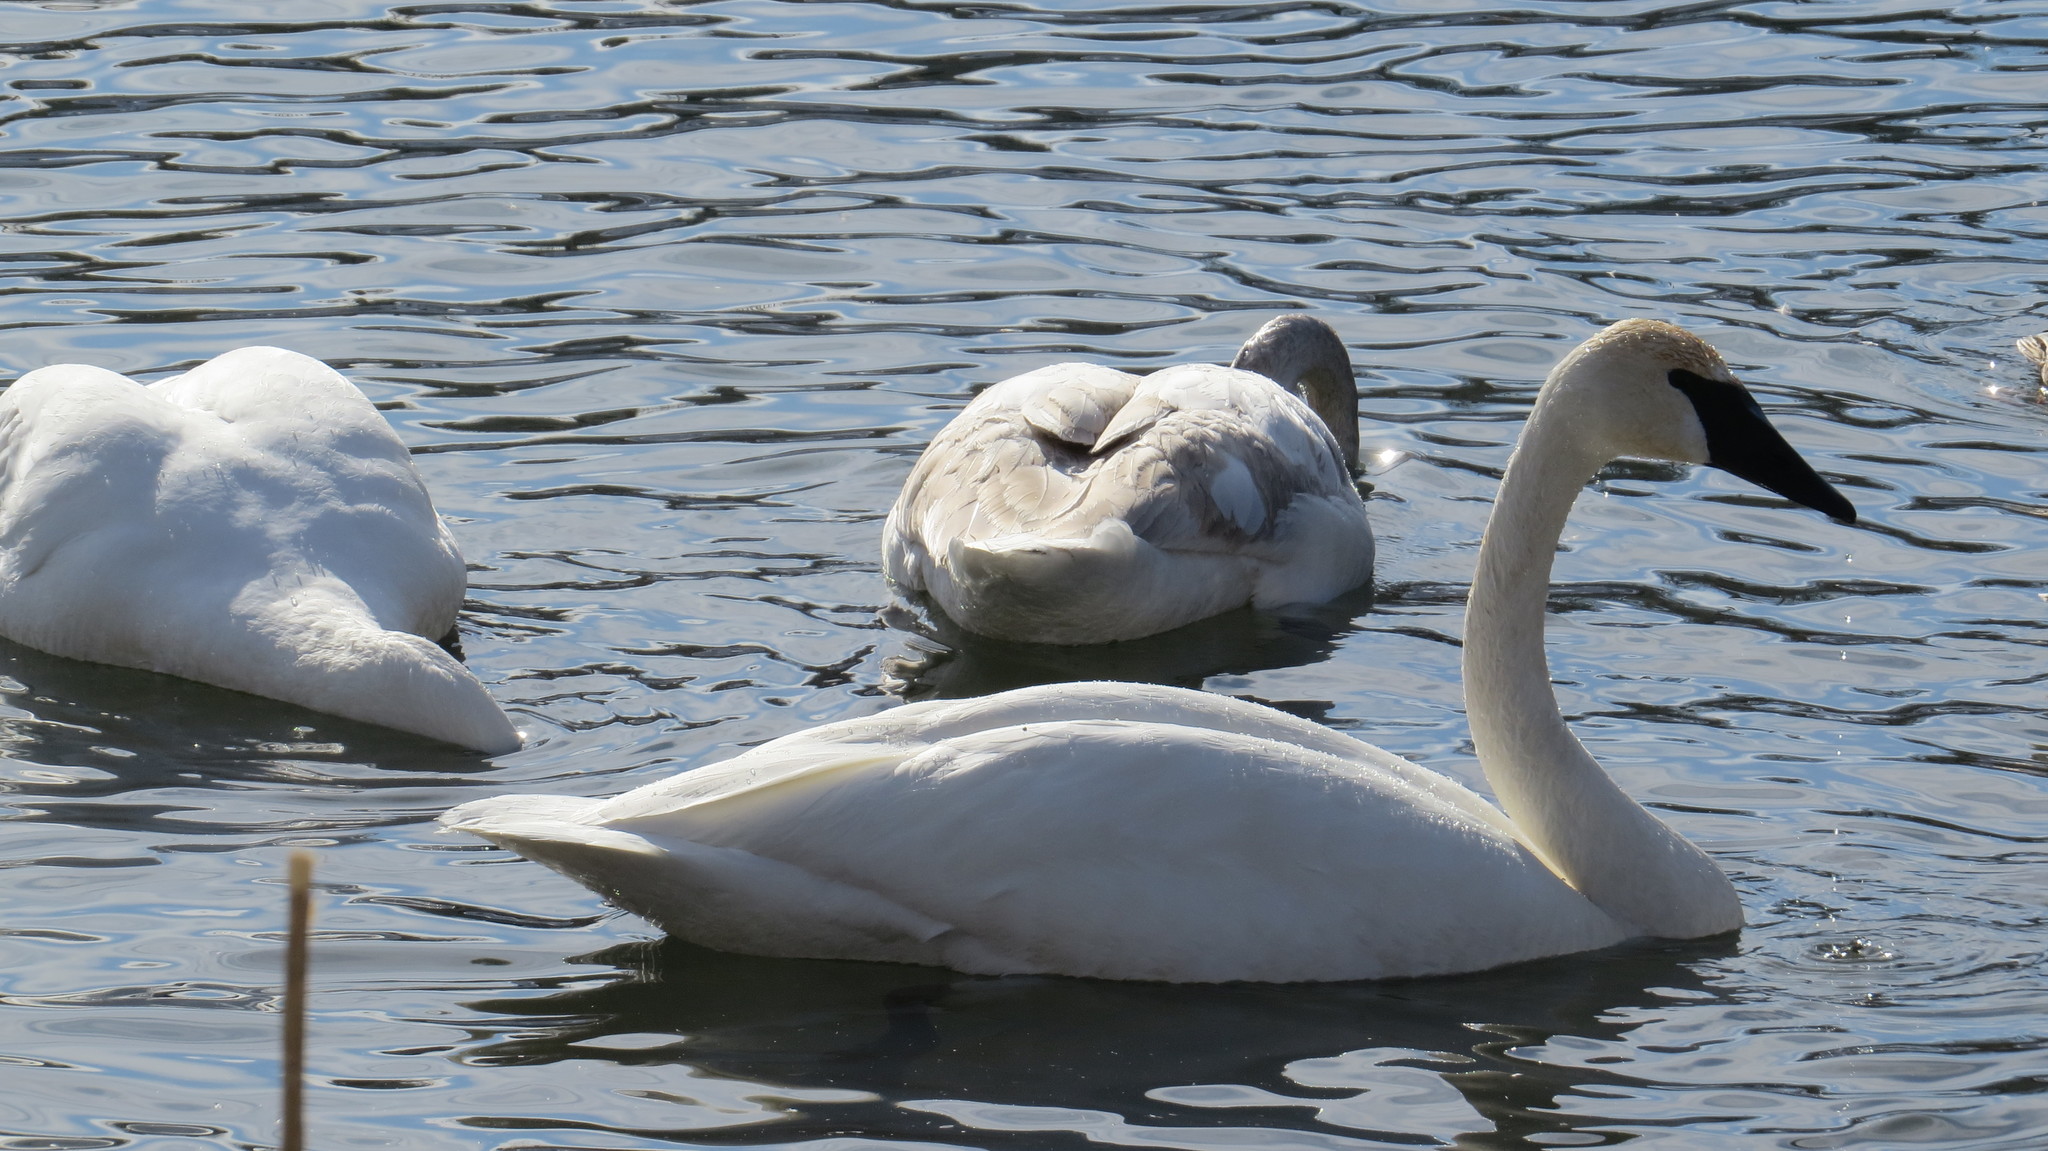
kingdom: Animalia
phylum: Chordata
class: Aves
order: Anseriformes
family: Anatidae
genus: Cygnus
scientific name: Cygnus buccinator
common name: Trumpeter swan
